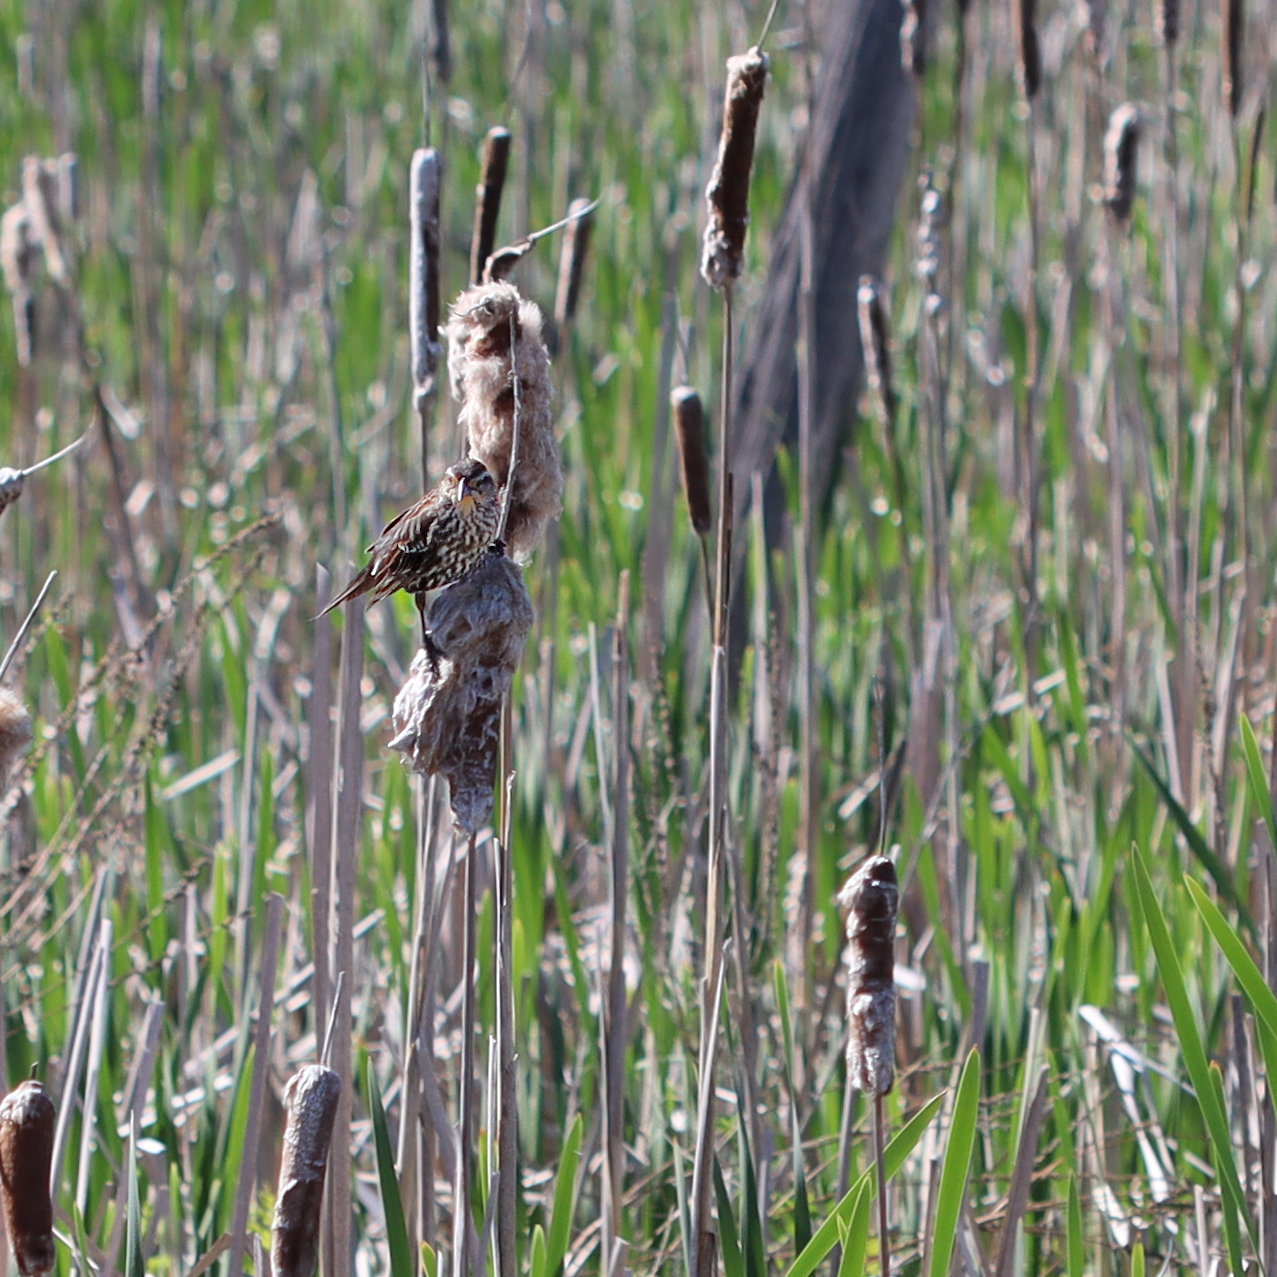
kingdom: Animalia
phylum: Chordata
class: Aves
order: Passeriformes
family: Icteridae
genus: Agelaius
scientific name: Agelaius phoeniceus
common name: Red-winged blackbird
